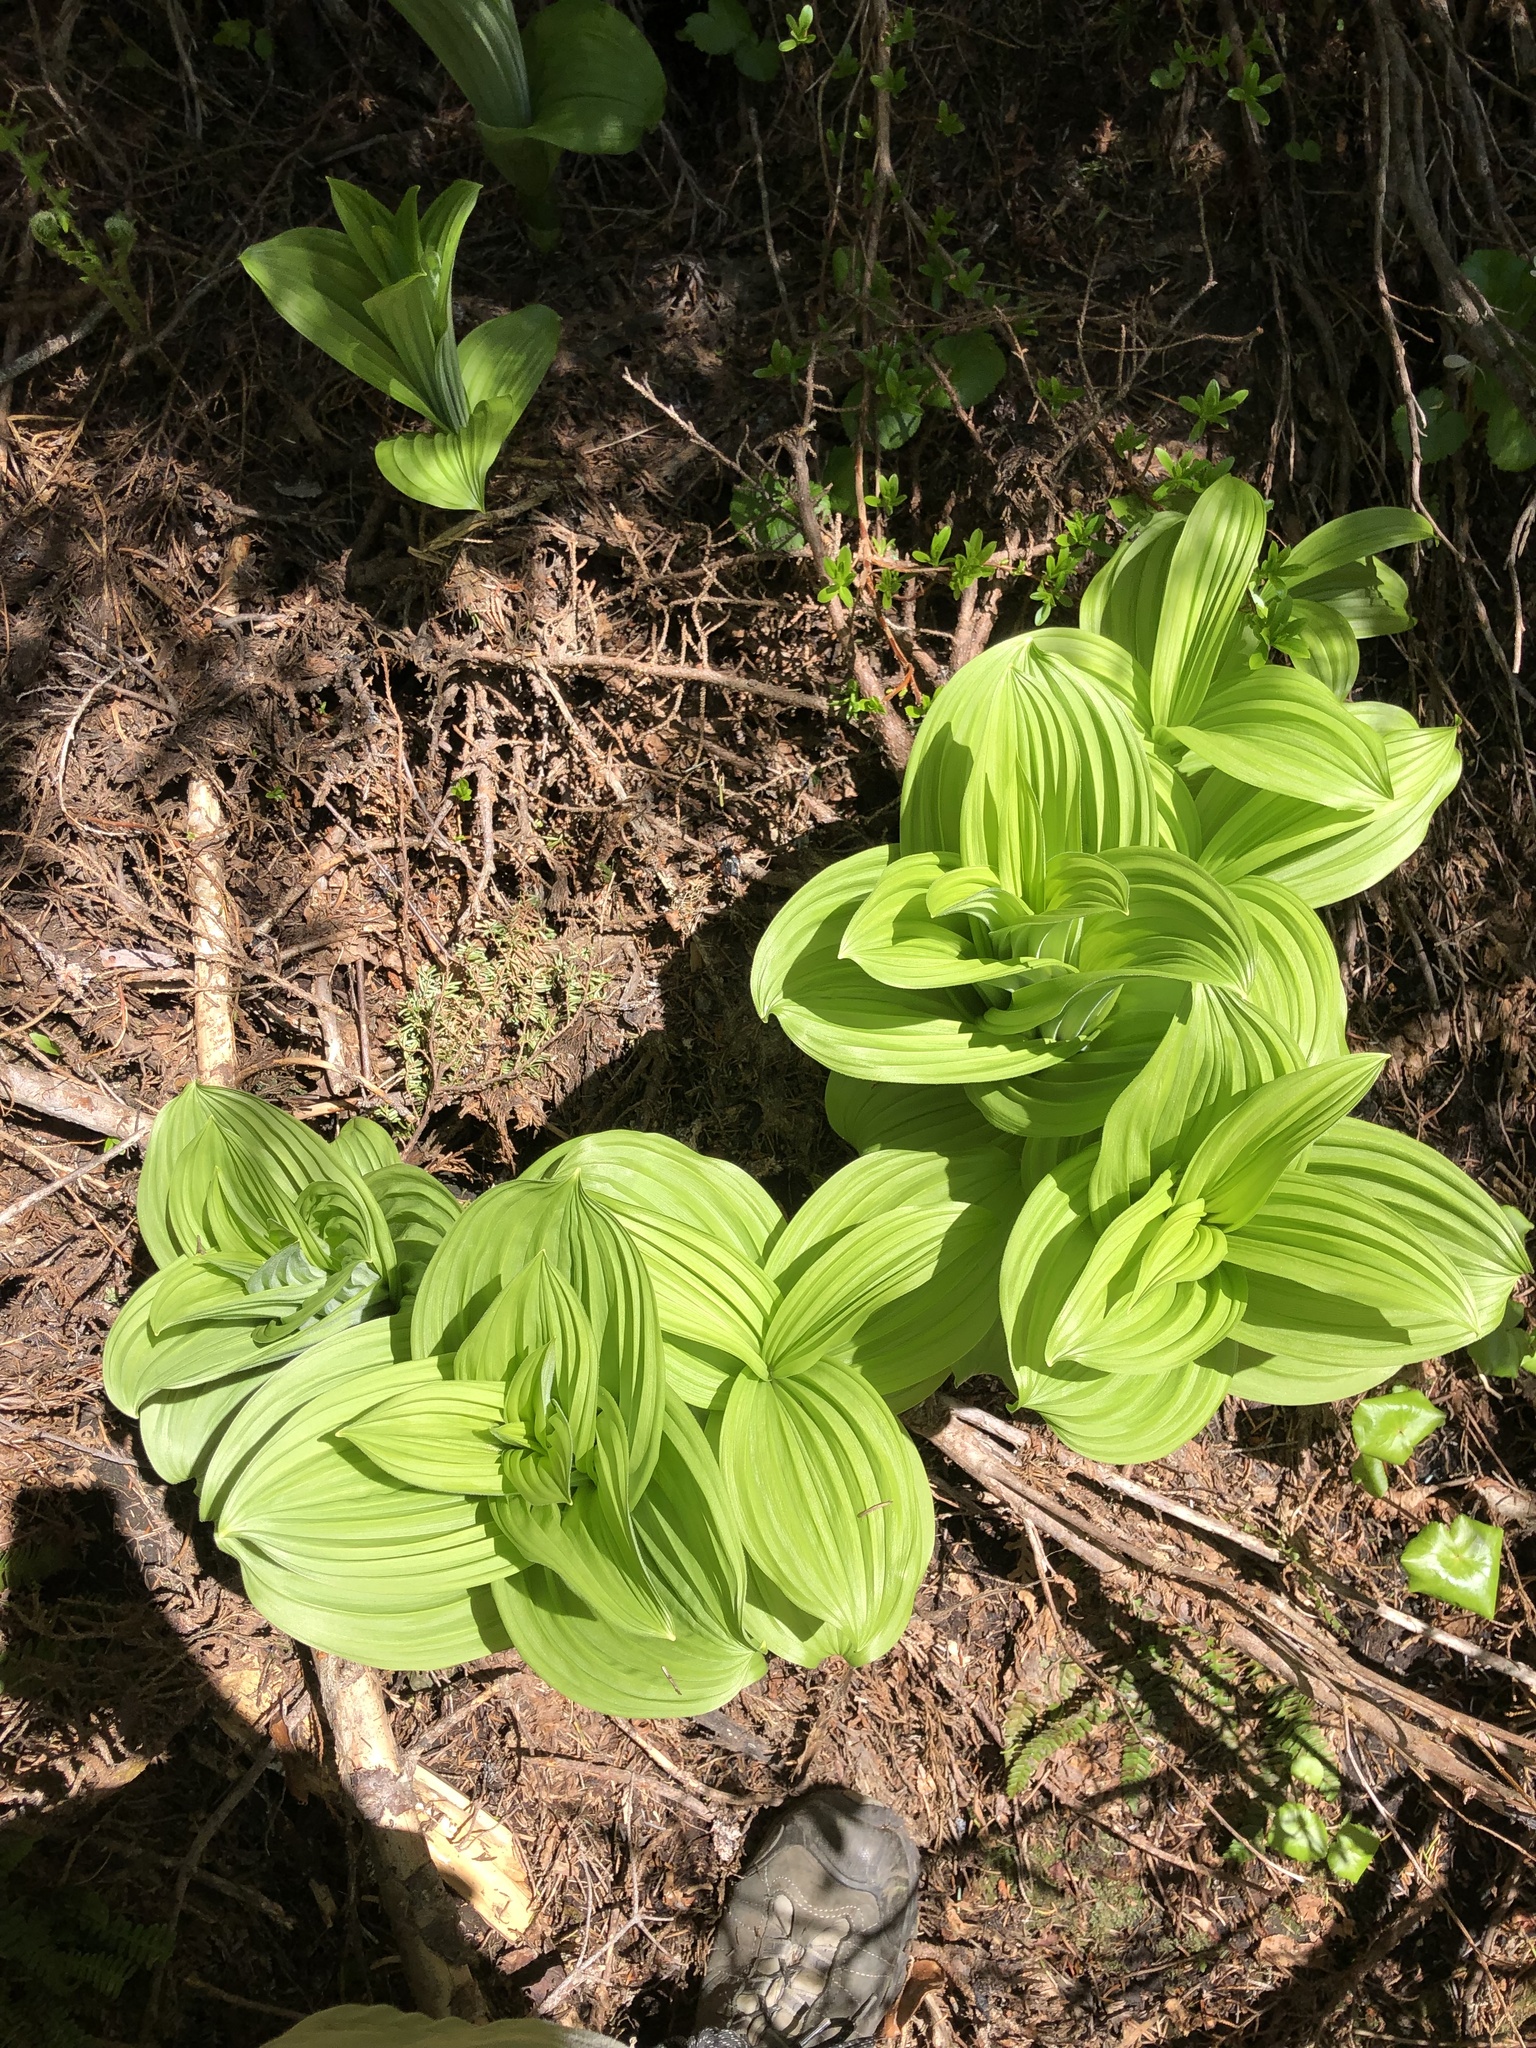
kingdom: Plantae
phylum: Tracheophyta
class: Liliopsida
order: Liliales
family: Melanthiaceae
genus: Veratrum
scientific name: Veratrum viride
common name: American false hellebore
